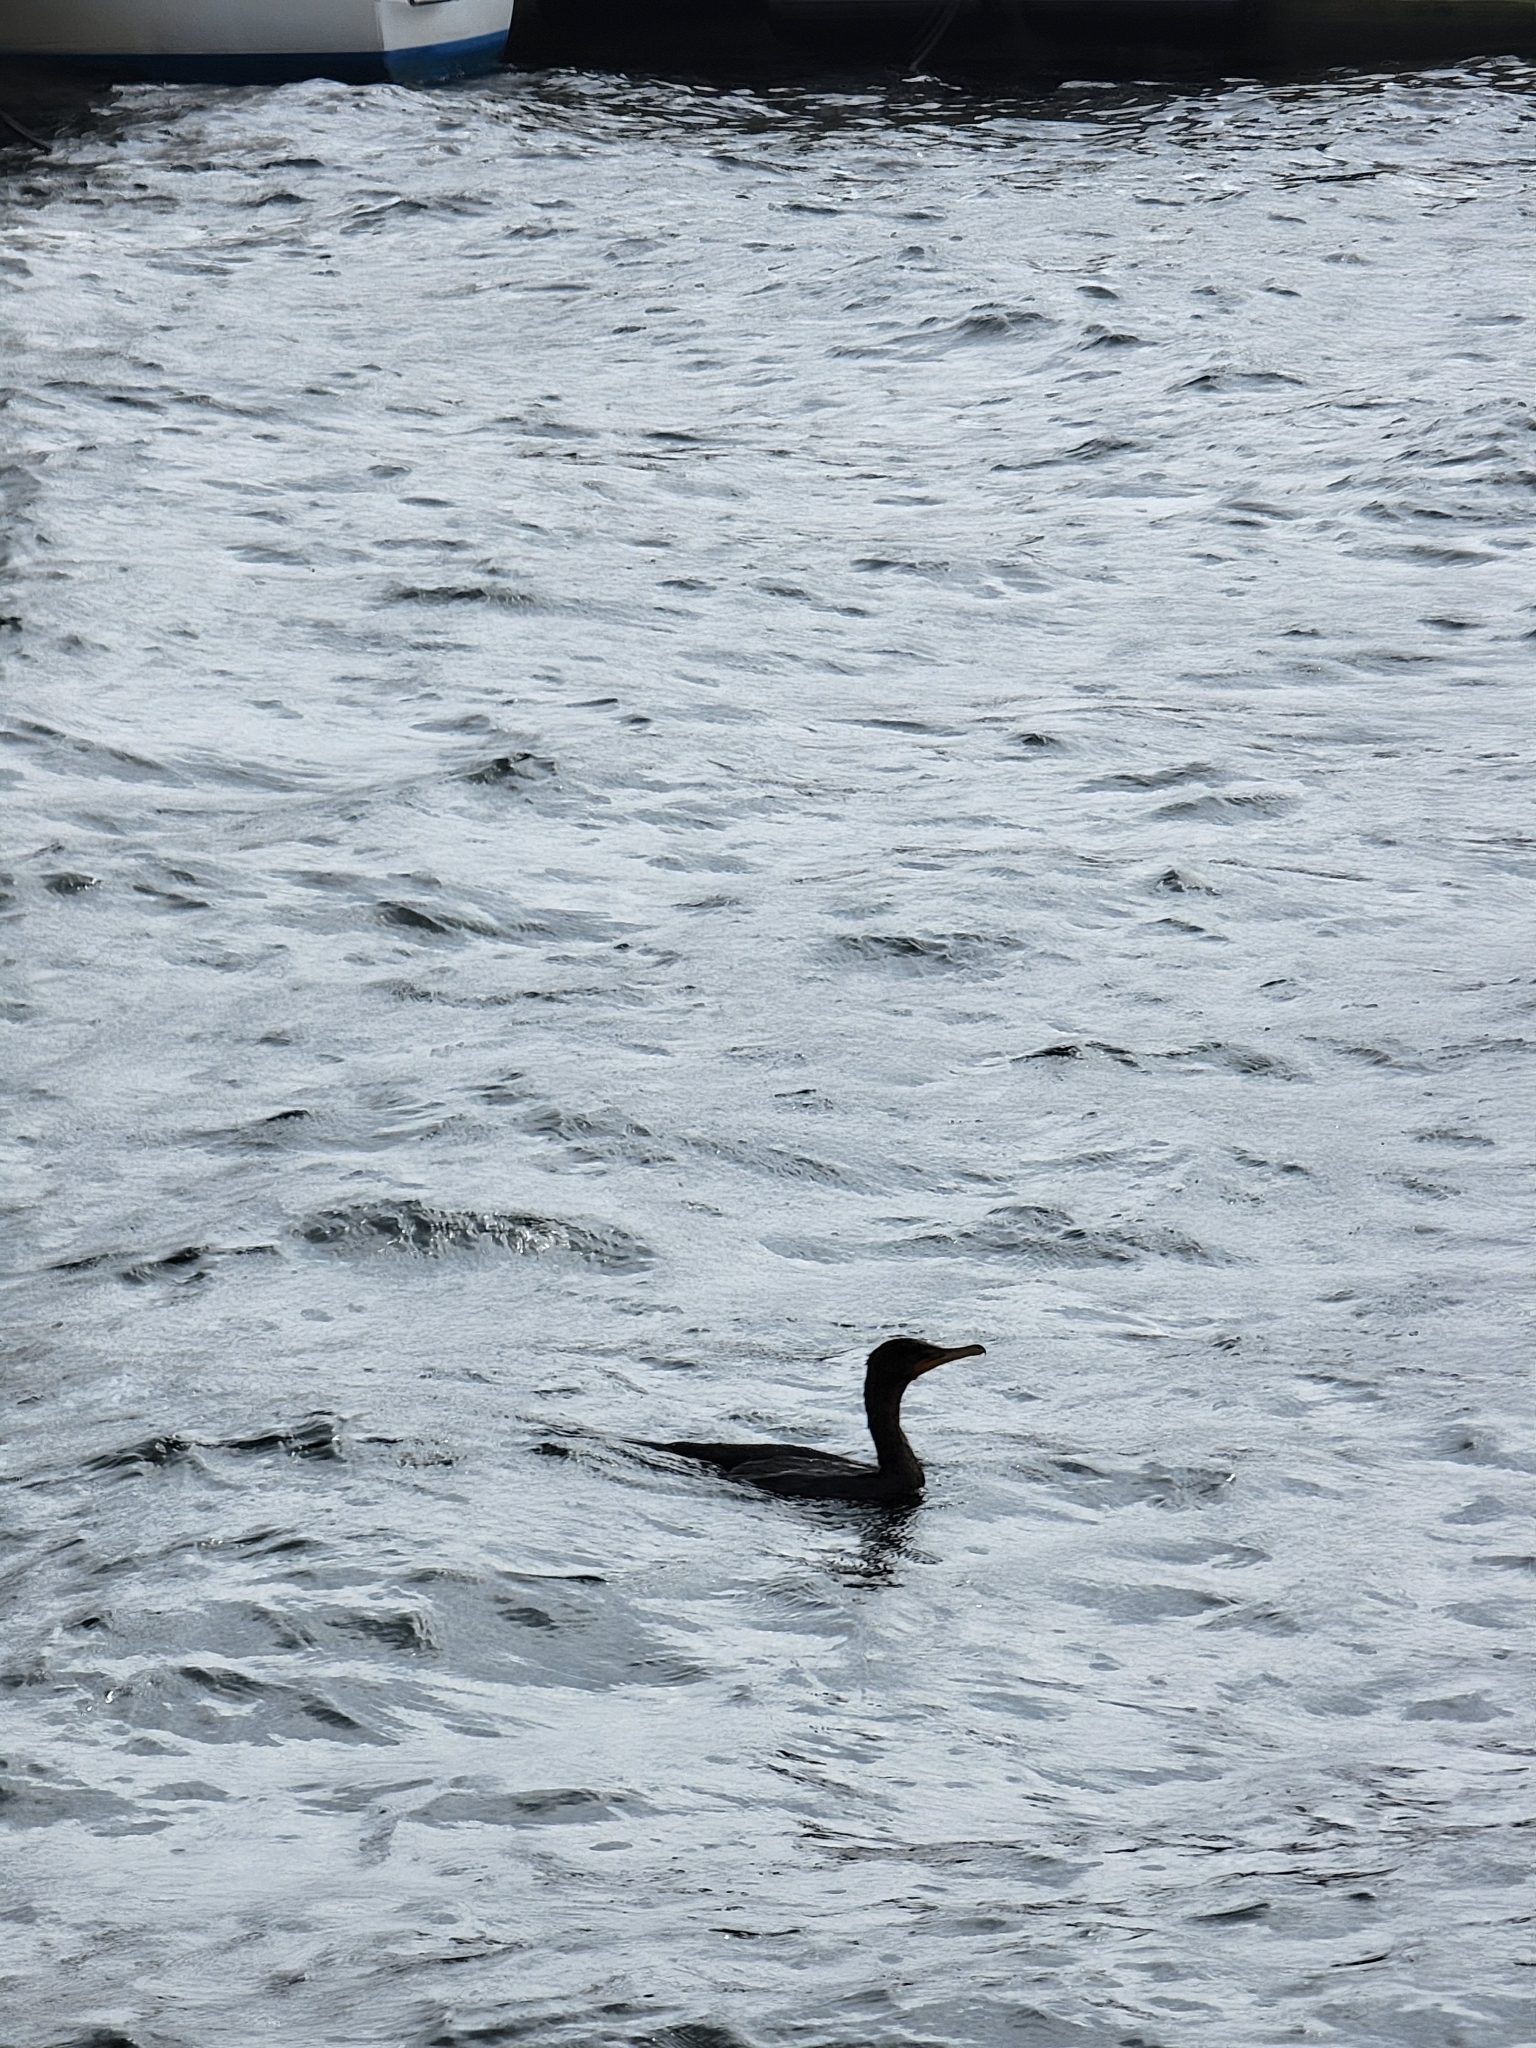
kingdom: Animalia
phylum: Chordata
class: Aves
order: Suliformes
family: Phalacrocoracidae
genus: Phalacrocorax
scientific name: Phalacrocorax auritus
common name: Double-crested cormorant
